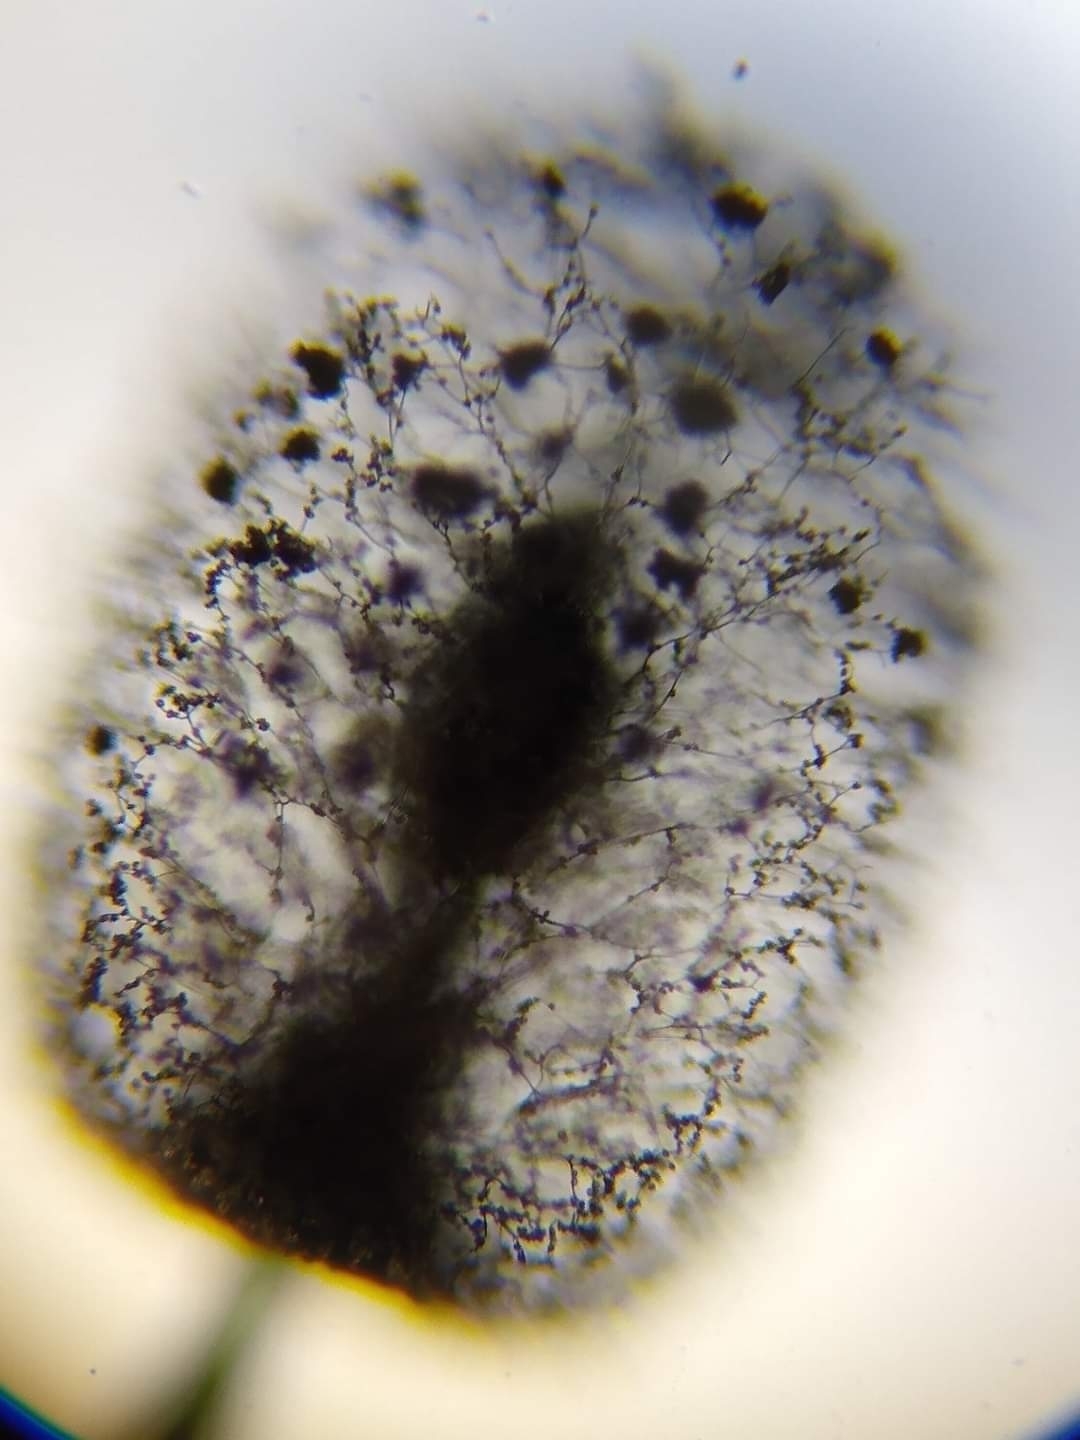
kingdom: Protozoa
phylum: Mycetozoa
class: Myxomycetes
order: Stemonitidales
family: Stemonitidaceae
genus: Comatricha
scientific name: Comatricha meandrispora
